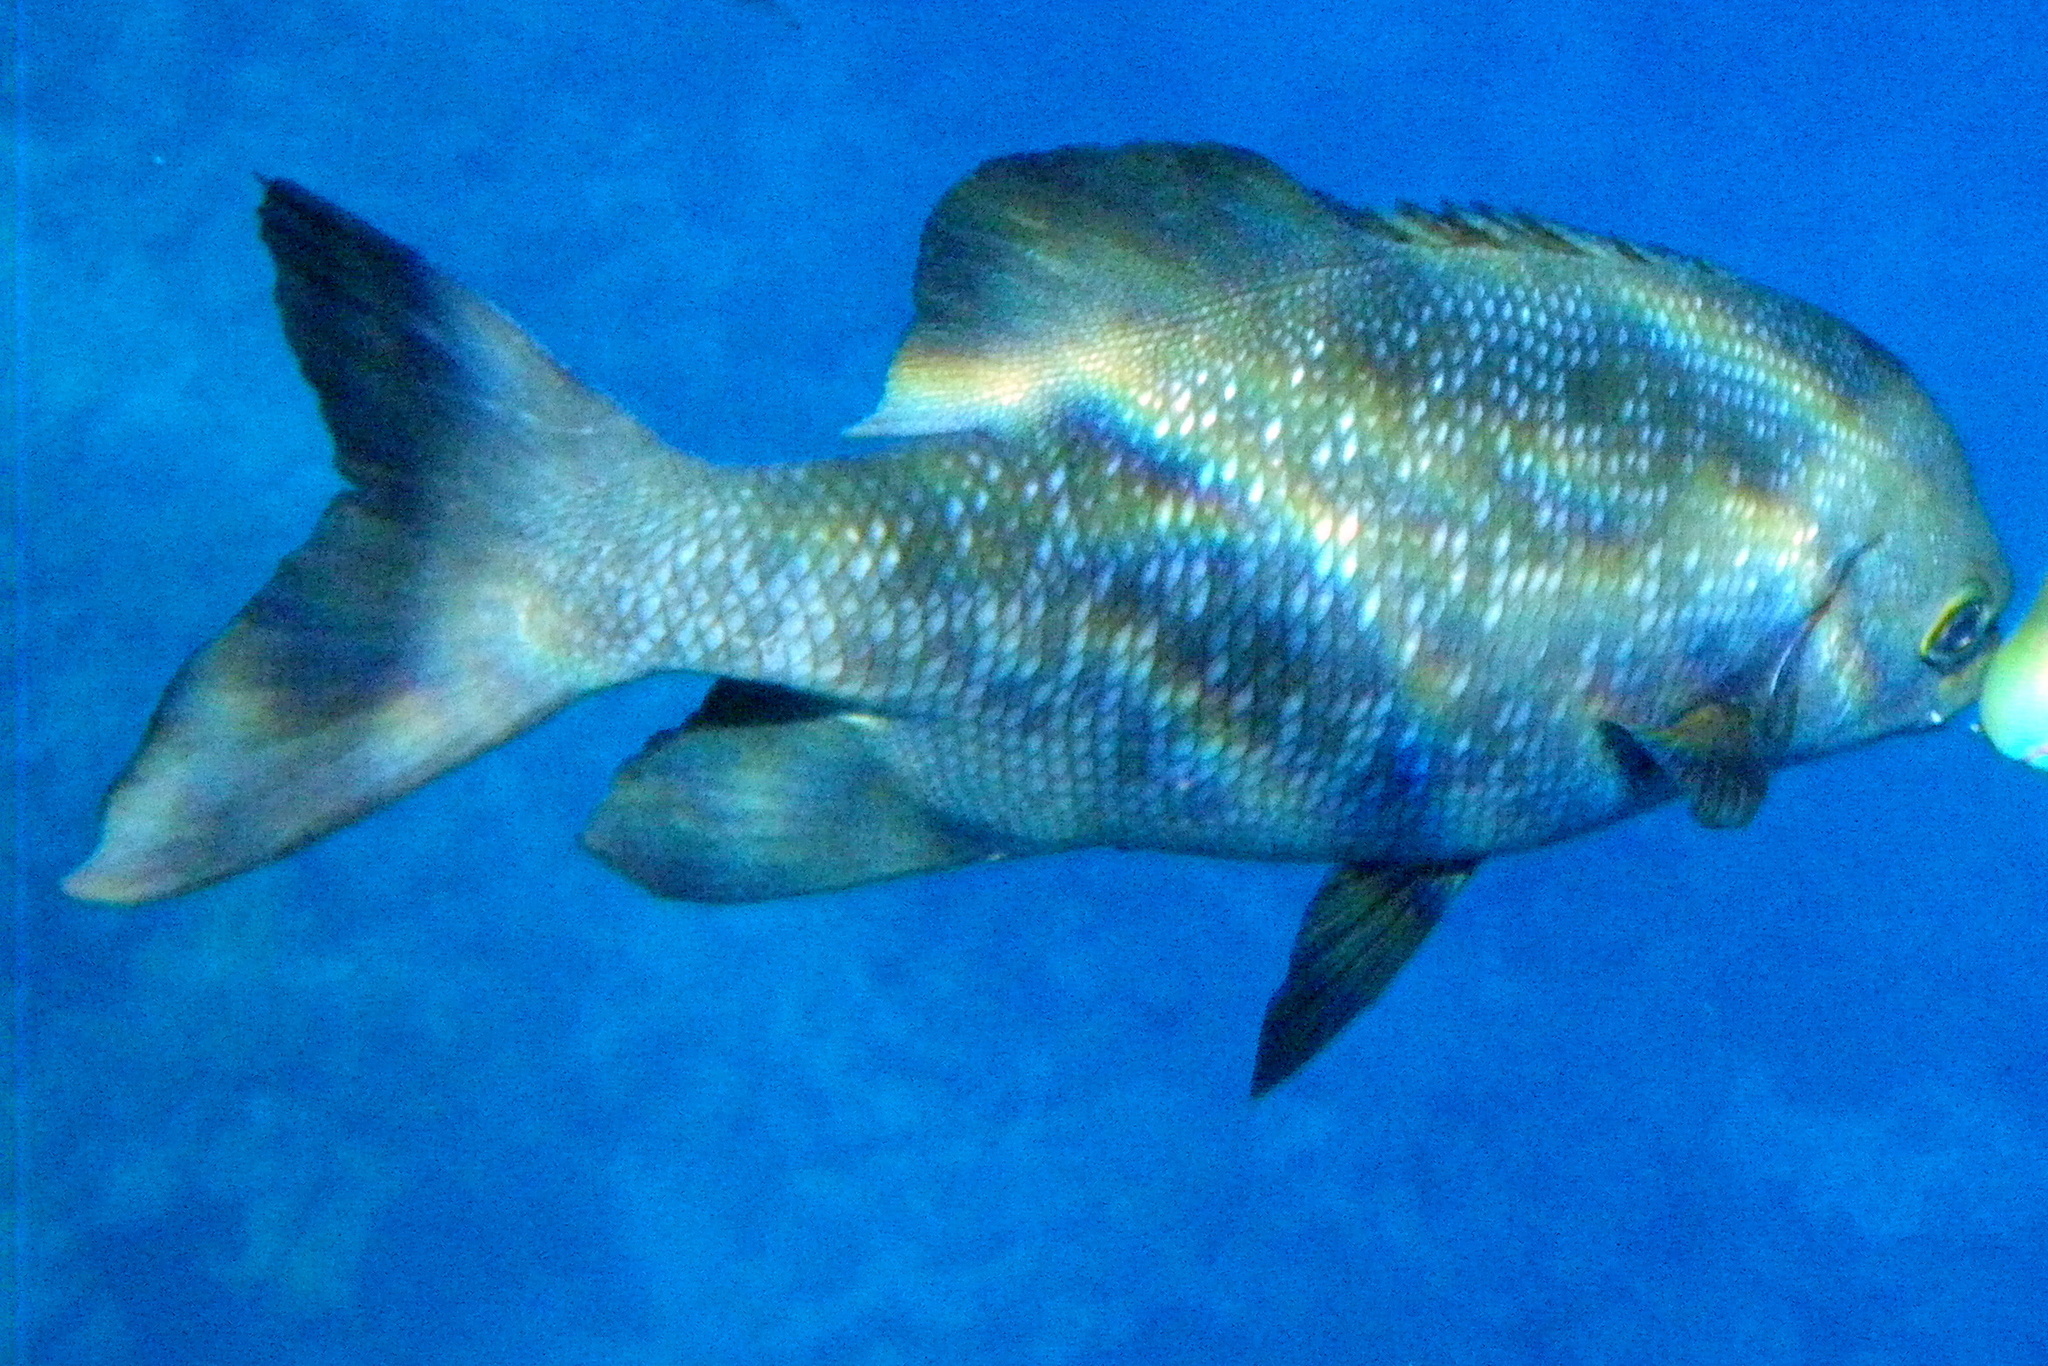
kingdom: Animalia
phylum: Chordata
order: Perciformes
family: Kyphosidae
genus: Kyphosus
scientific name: Kyphosus cinerascens
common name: Topsail drummer
